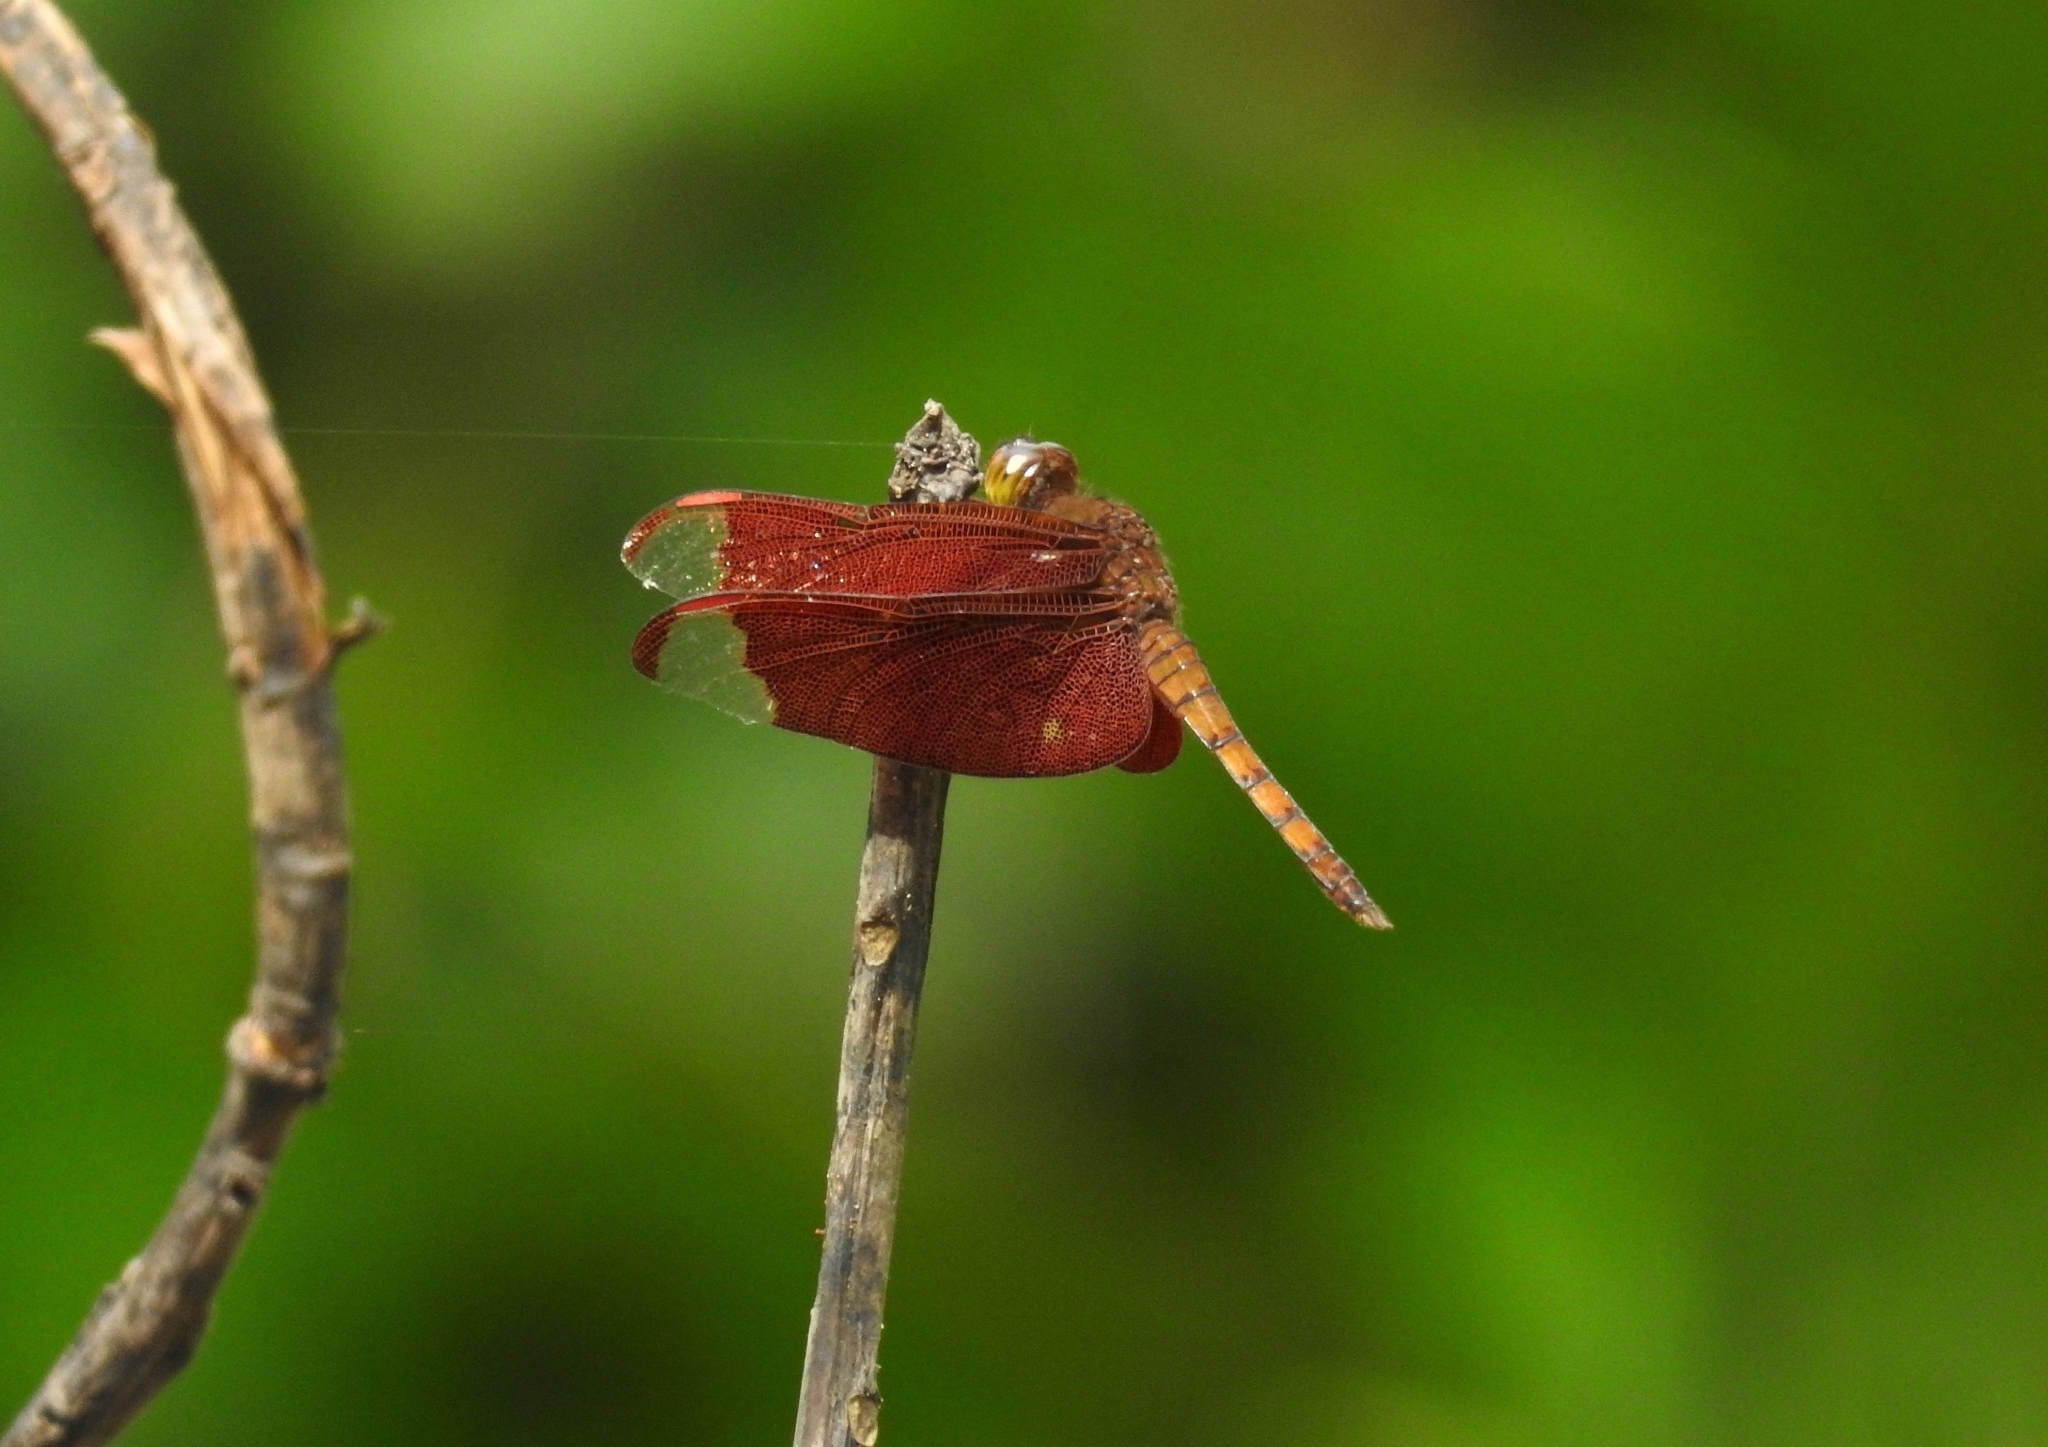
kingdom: Animalia
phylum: Arthropoda
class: Insecta
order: Odonata
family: Libellulidae
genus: Neurothemis
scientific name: Neurothemis fulvia
